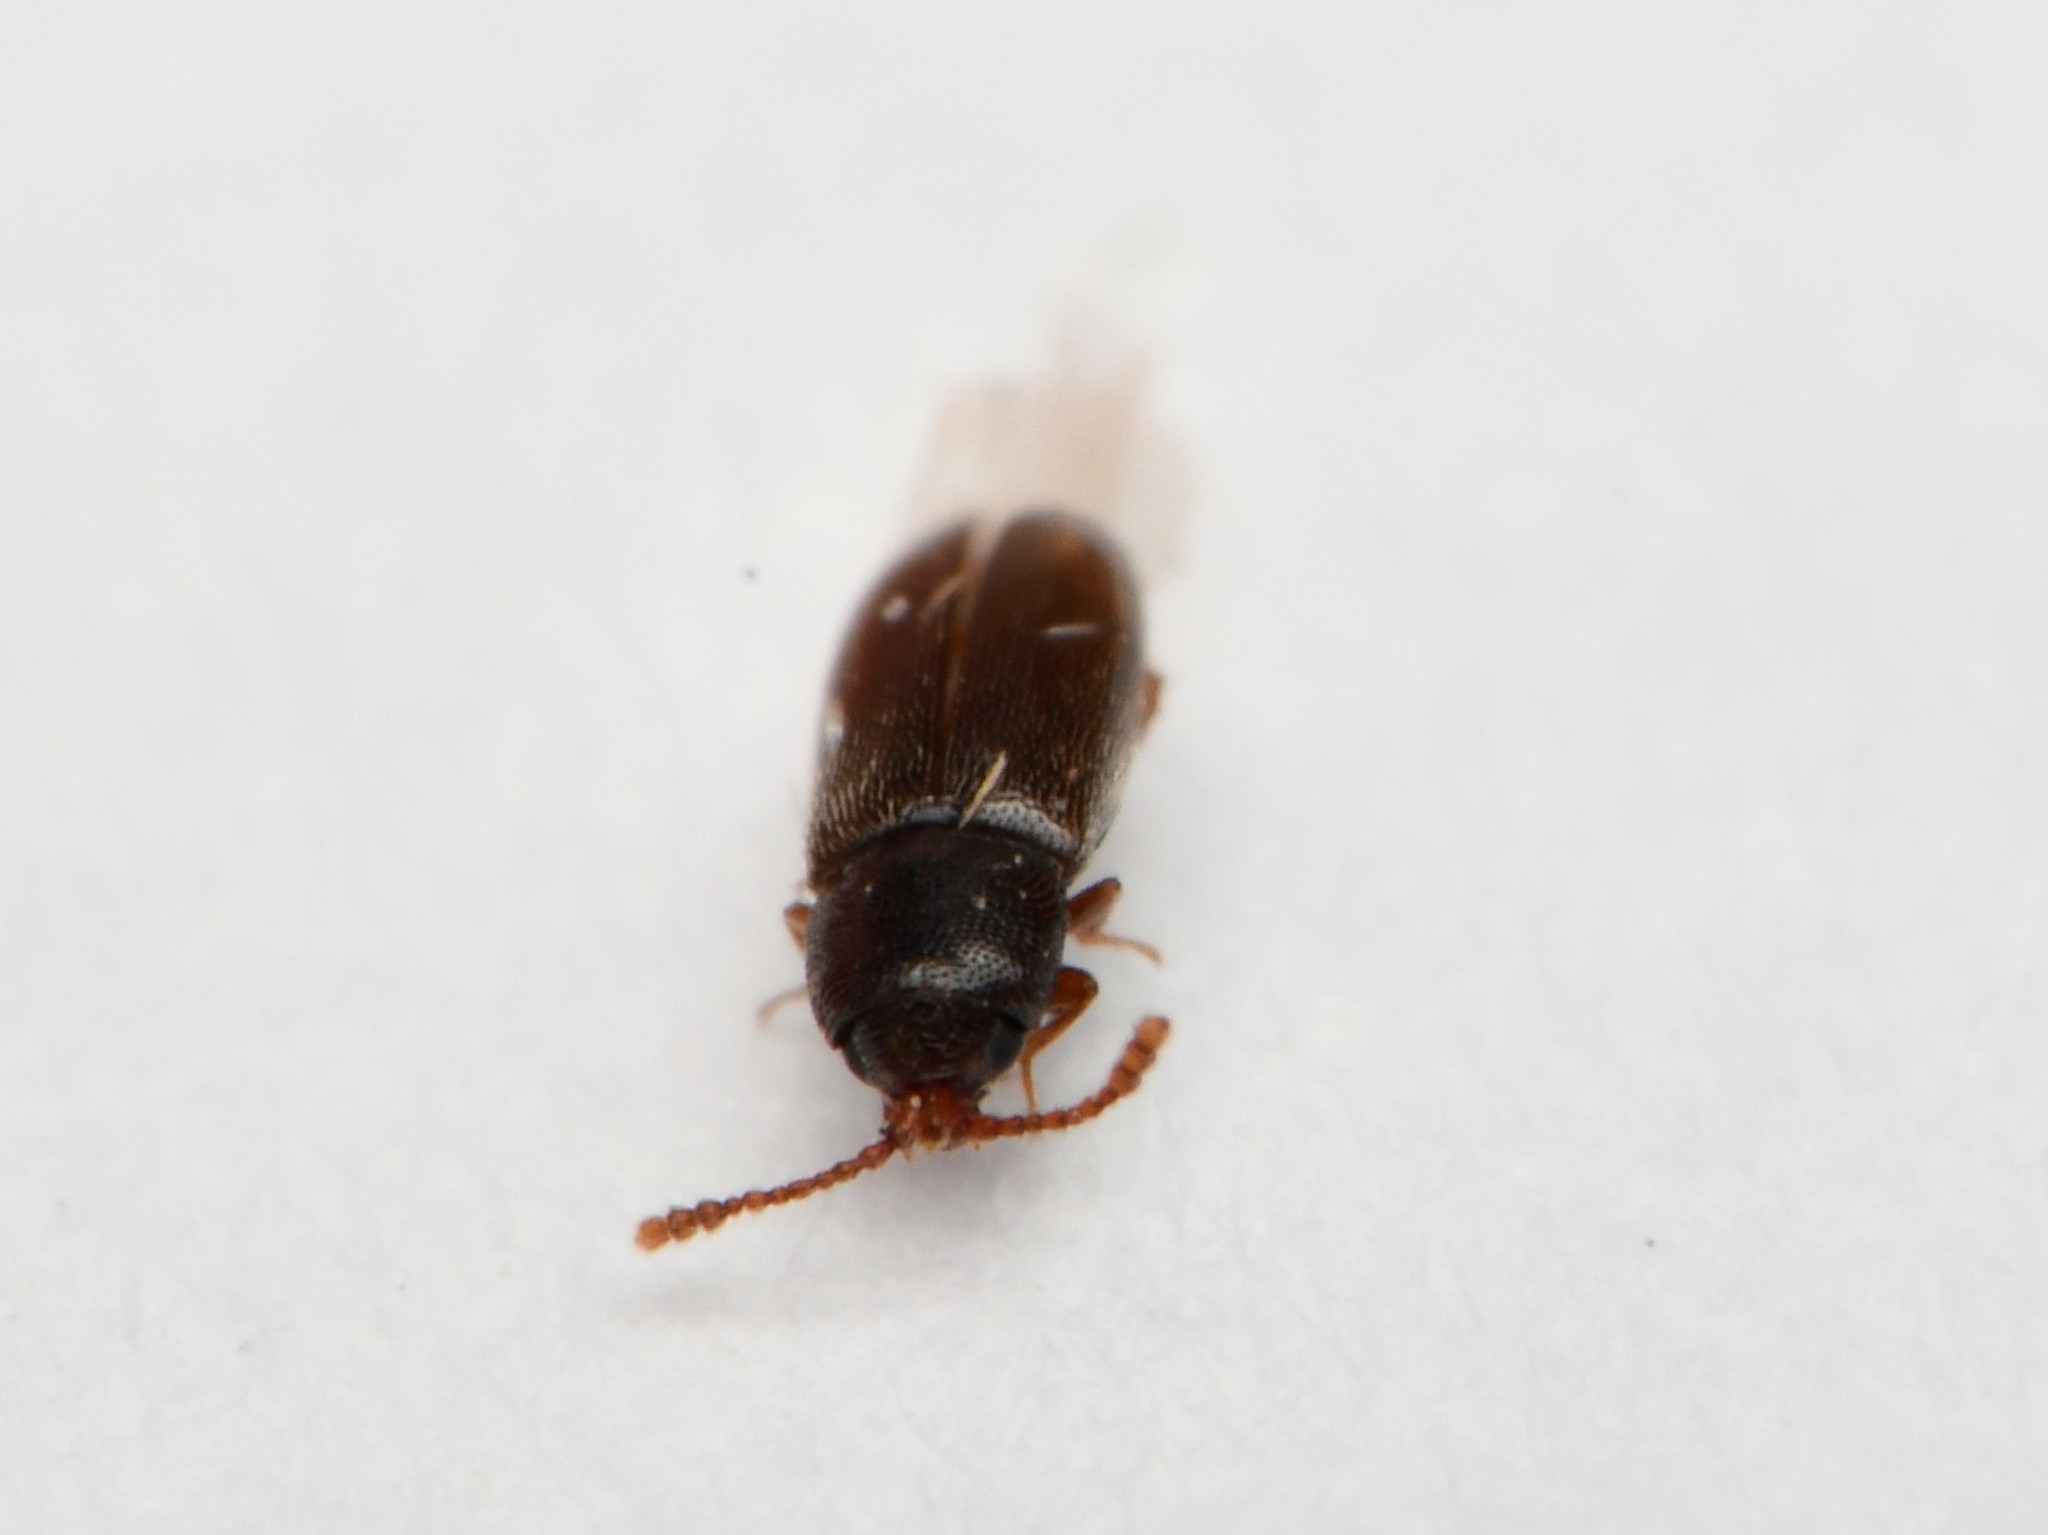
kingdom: Animalia
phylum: Arthropoda
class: Insecta
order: Coleoptera
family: Cryptophagidae
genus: Atomaria
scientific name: Atomaria linearis
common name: Pygmy mangel beetle
